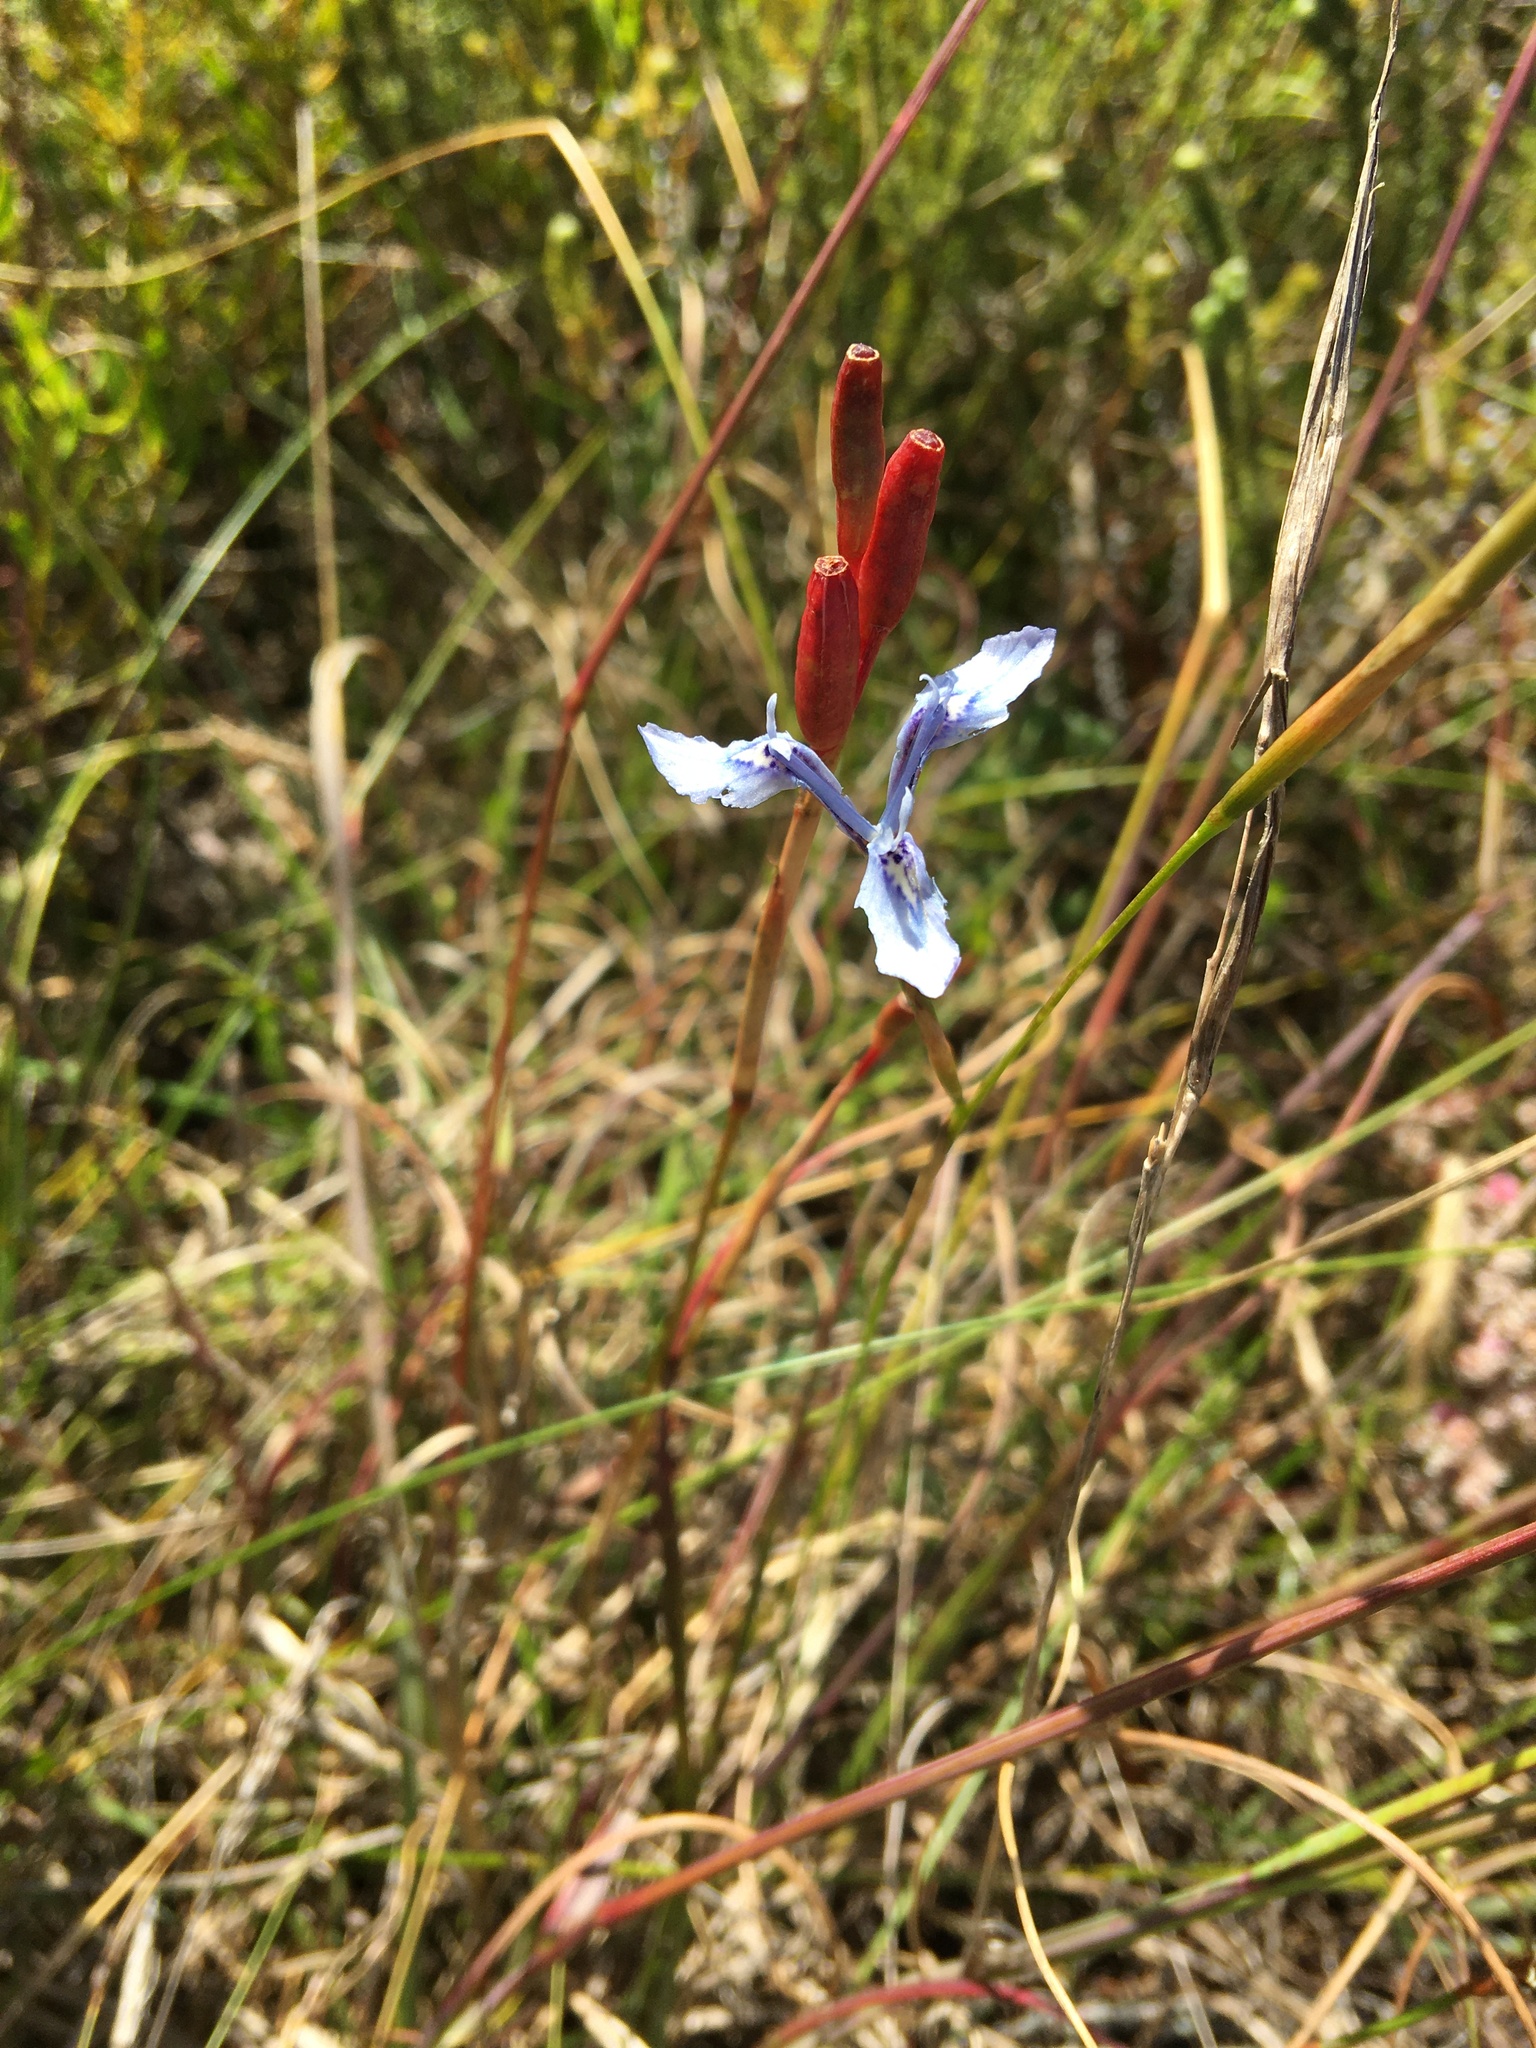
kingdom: Plantae
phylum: Tracheophyta
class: Liliopsida
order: Asparagales
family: Iridaceae
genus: Moraea
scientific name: Moraea tripetala
